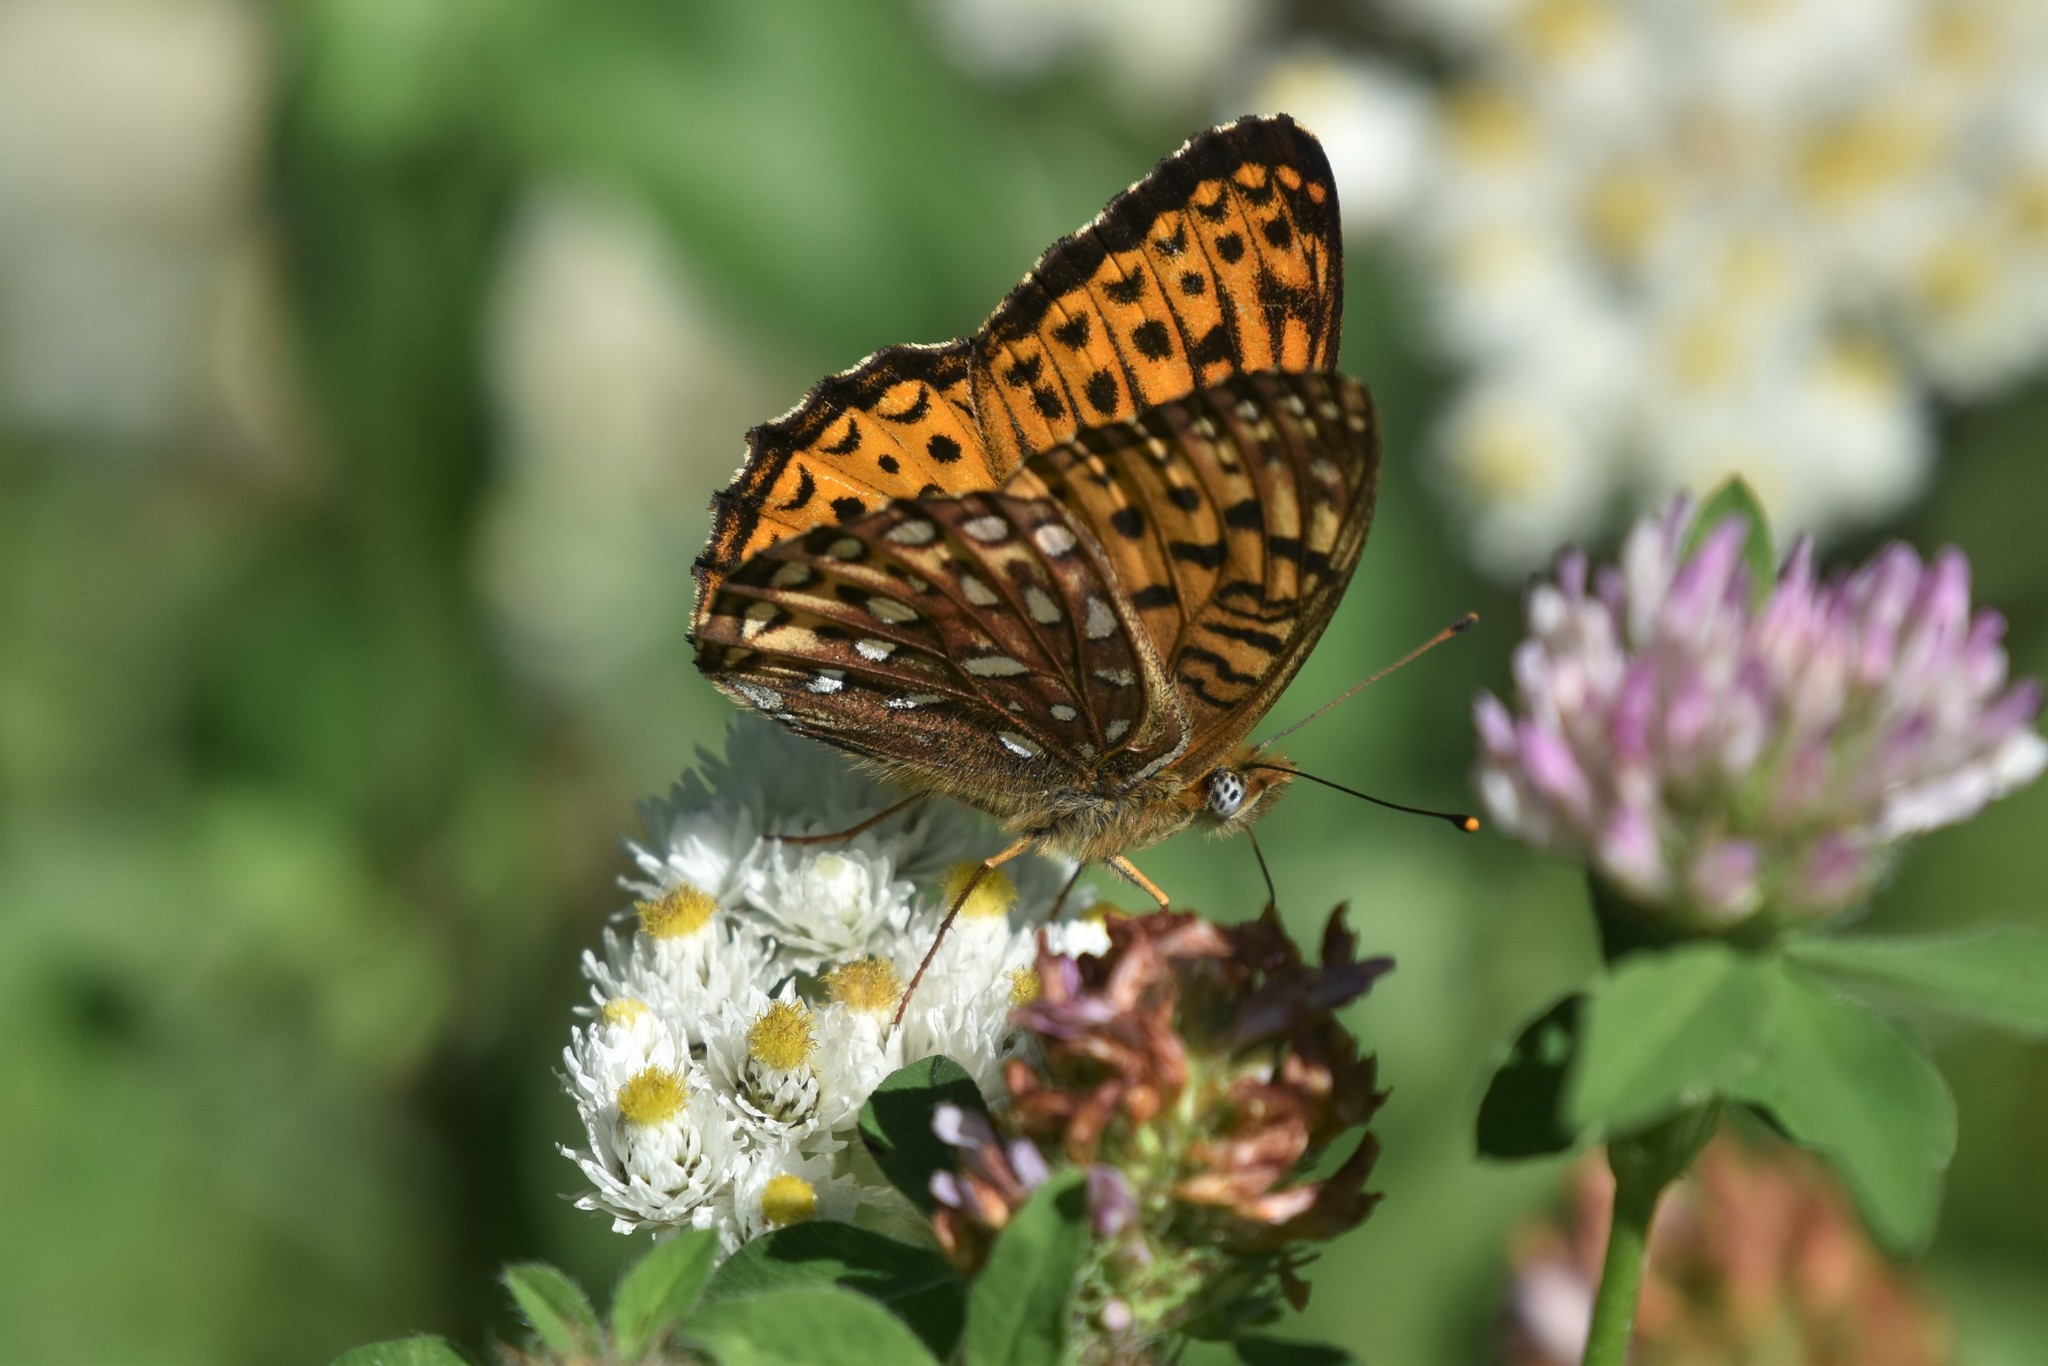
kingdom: Animalia
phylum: Arthropoda
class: Insecta
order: Lepidoptera
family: Nymphalidae
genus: Speyeria
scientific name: Speyeria atlantis
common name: Atlantis fritillary
